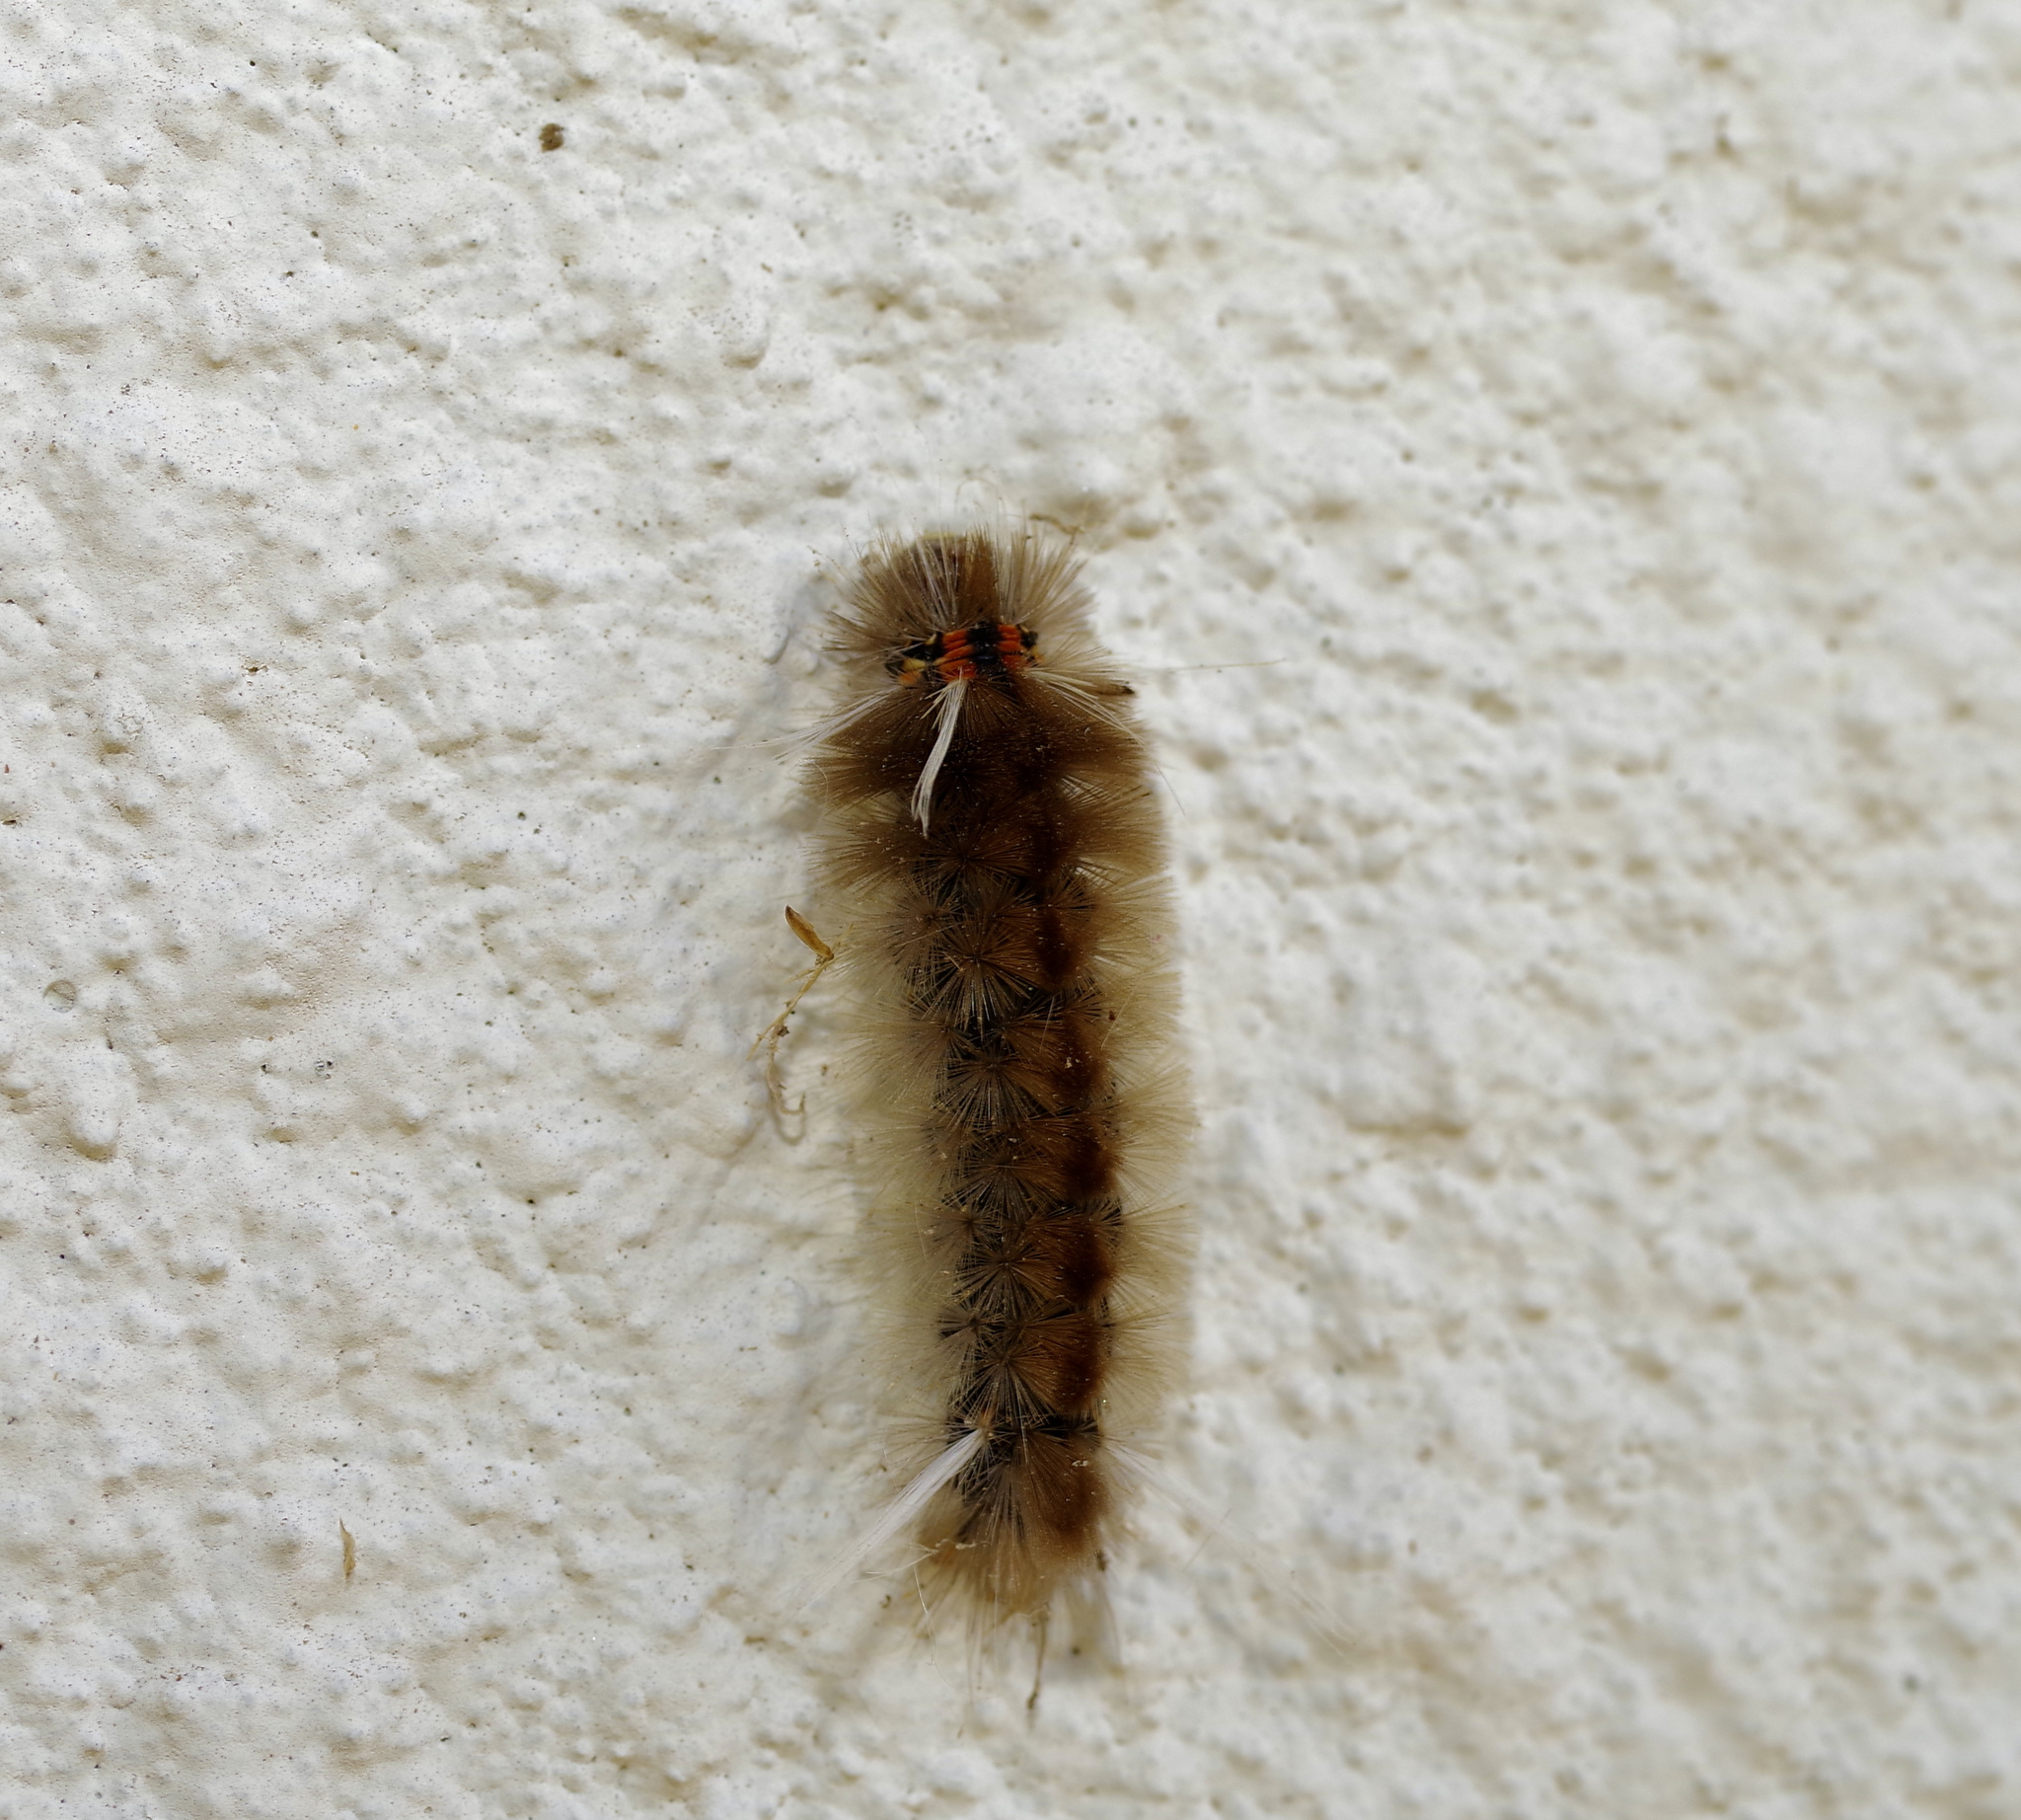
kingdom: Animalia
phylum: Arthropoda
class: Insecta
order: Lepidoptera
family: Erebidae
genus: Halysidota
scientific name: Halysidota schausi
